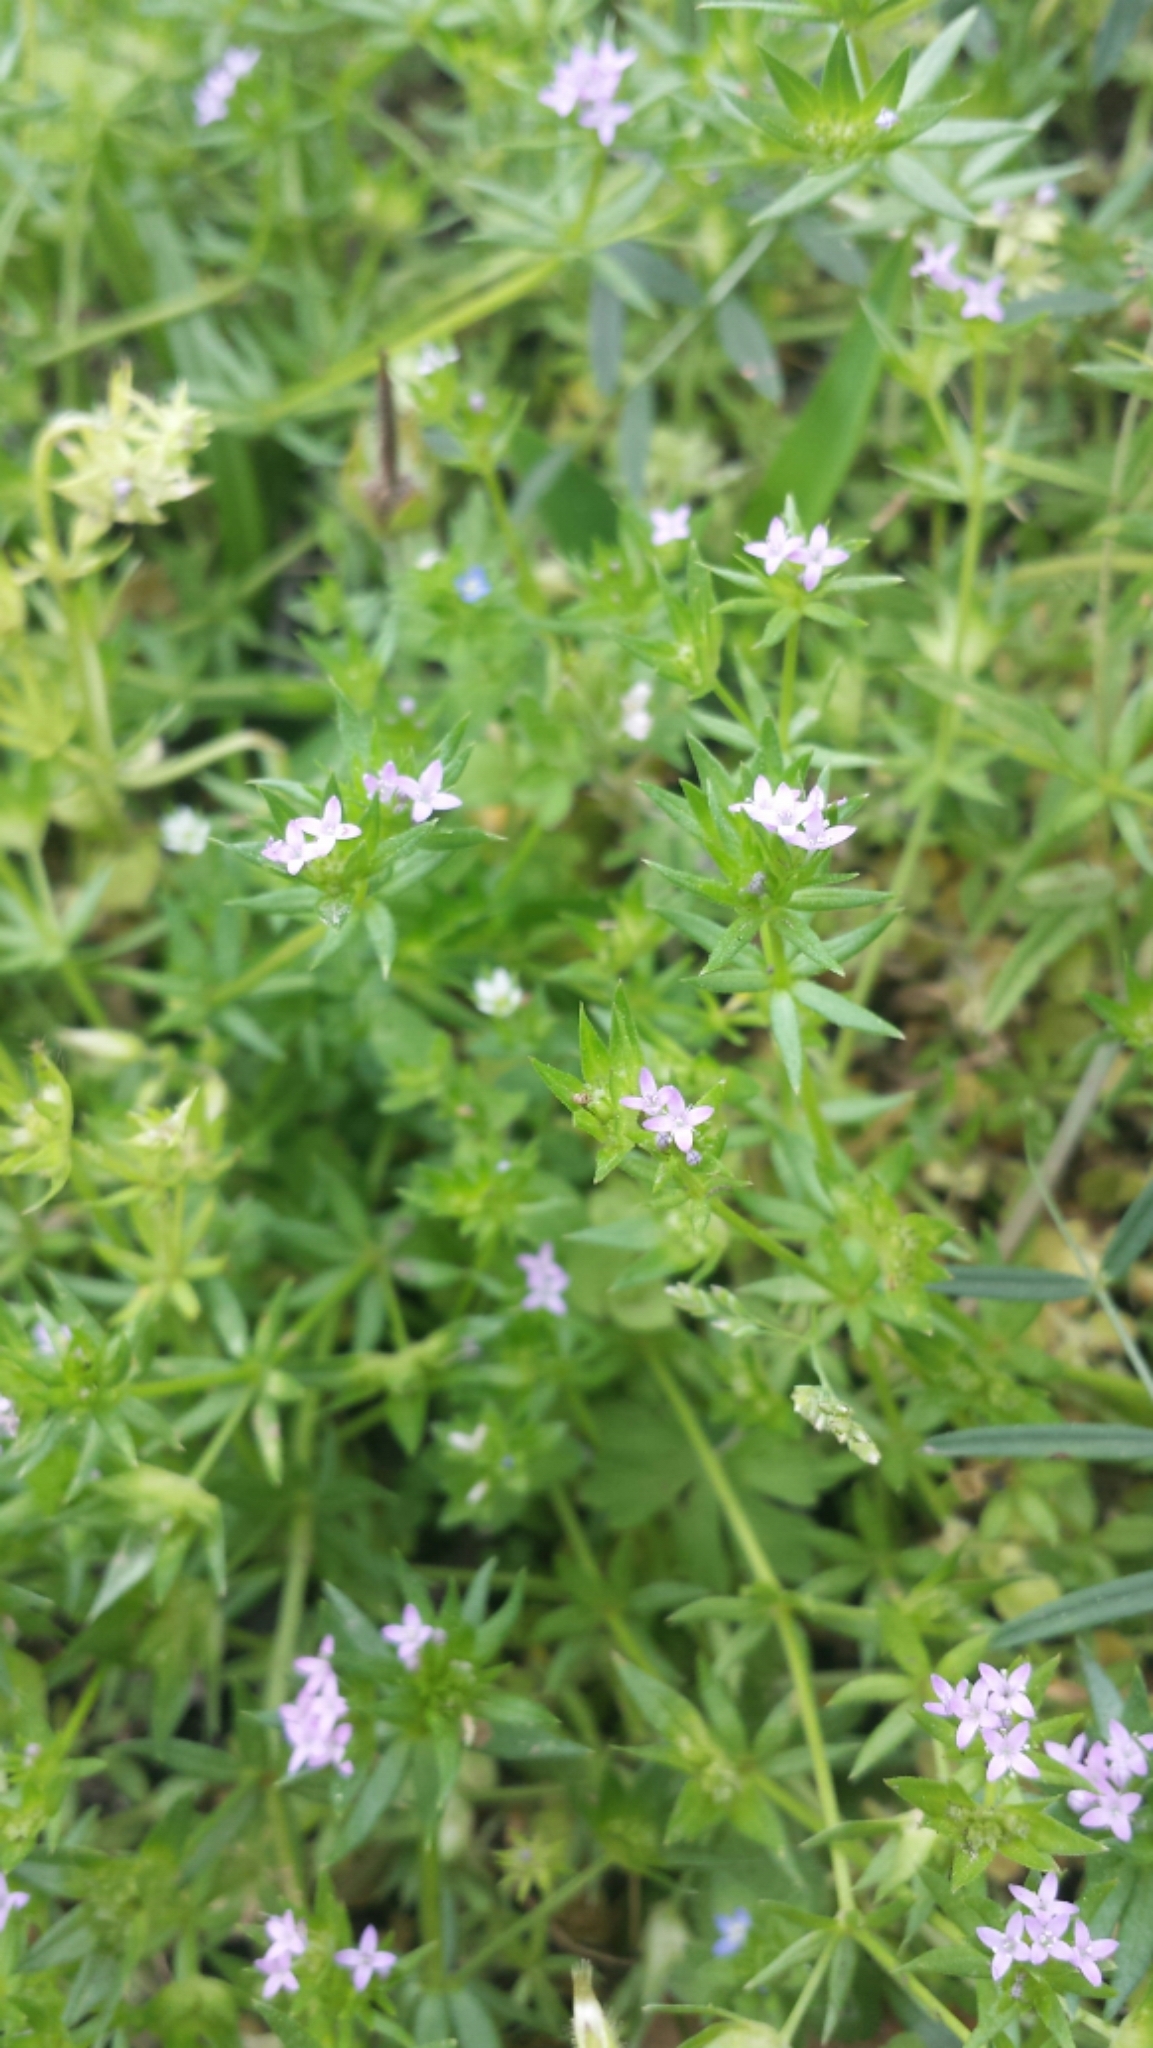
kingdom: Plantae
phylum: Tracheophyta
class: Magnoliopsida
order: Gentianales
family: Rubiaceae
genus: Sherardia
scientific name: Sherardia arvensis
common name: Field madder
